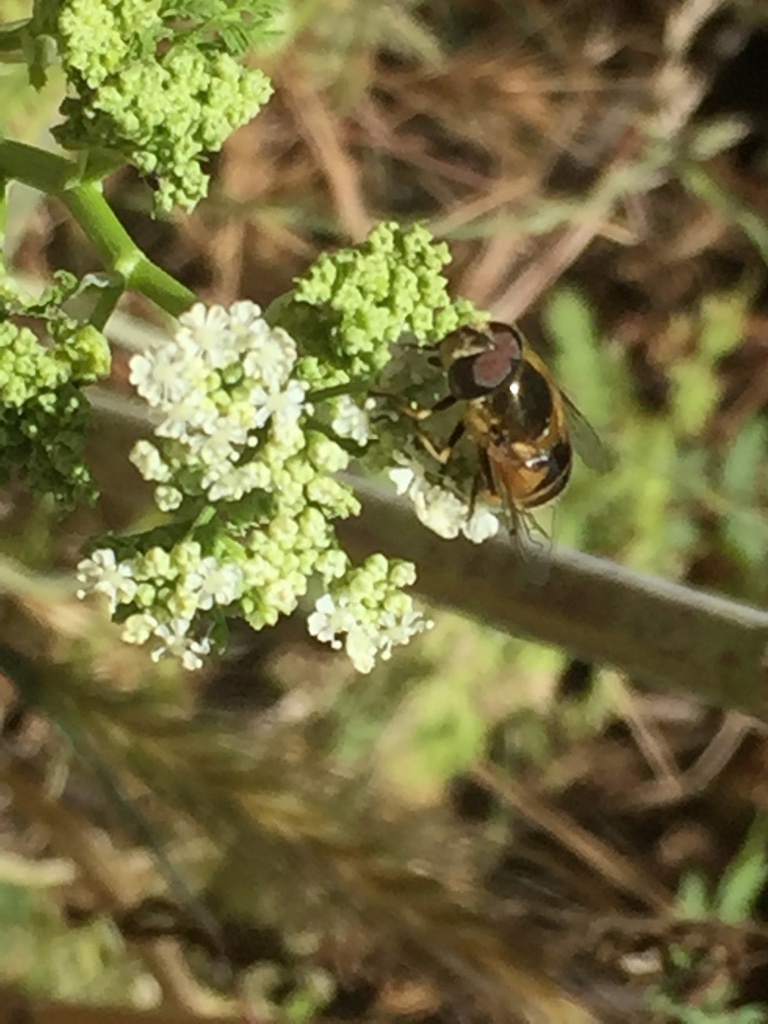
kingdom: Animalia
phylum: Arthropoda
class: Insecta
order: Diptera
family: Syrphidae
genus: Eristalis
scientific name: Eristalis hirta
